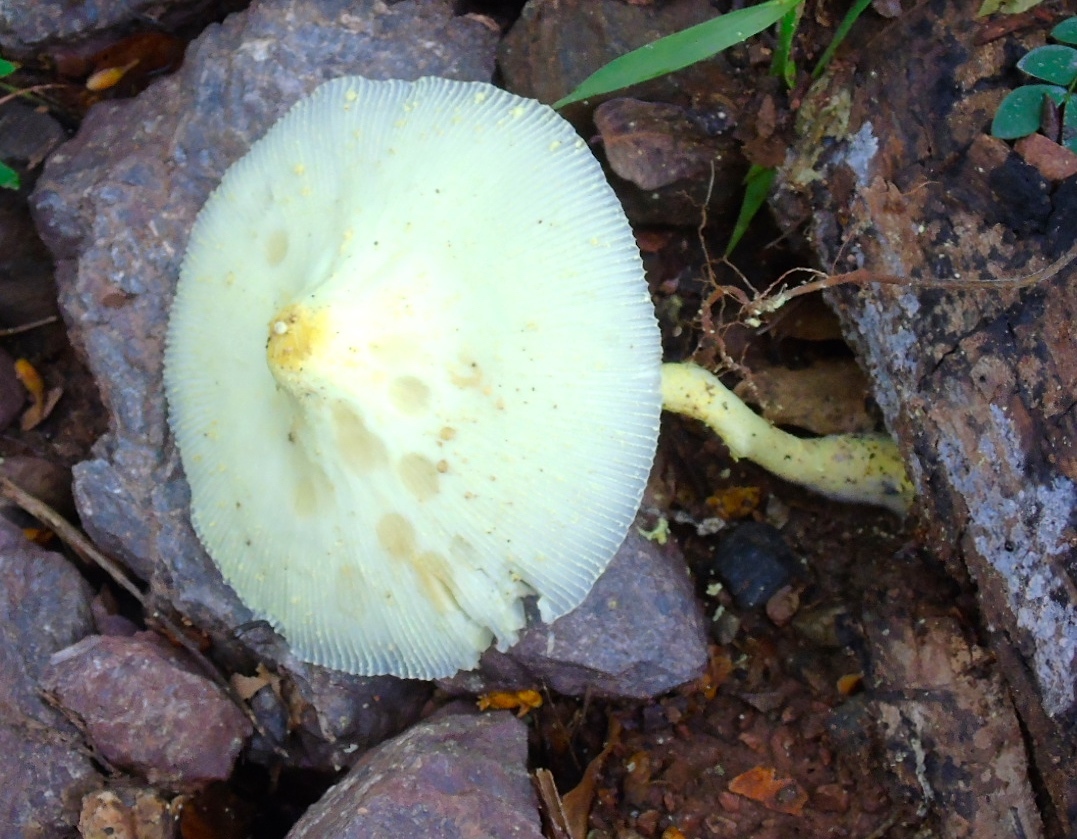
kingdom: Fungi
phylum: Basidiomycota
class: Agaricomycetes
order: Agaricales
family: Agaricaceae
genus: Leucocoprinus
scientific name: Leucocoprinus birnbaumii
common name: Plantpot dapperling
